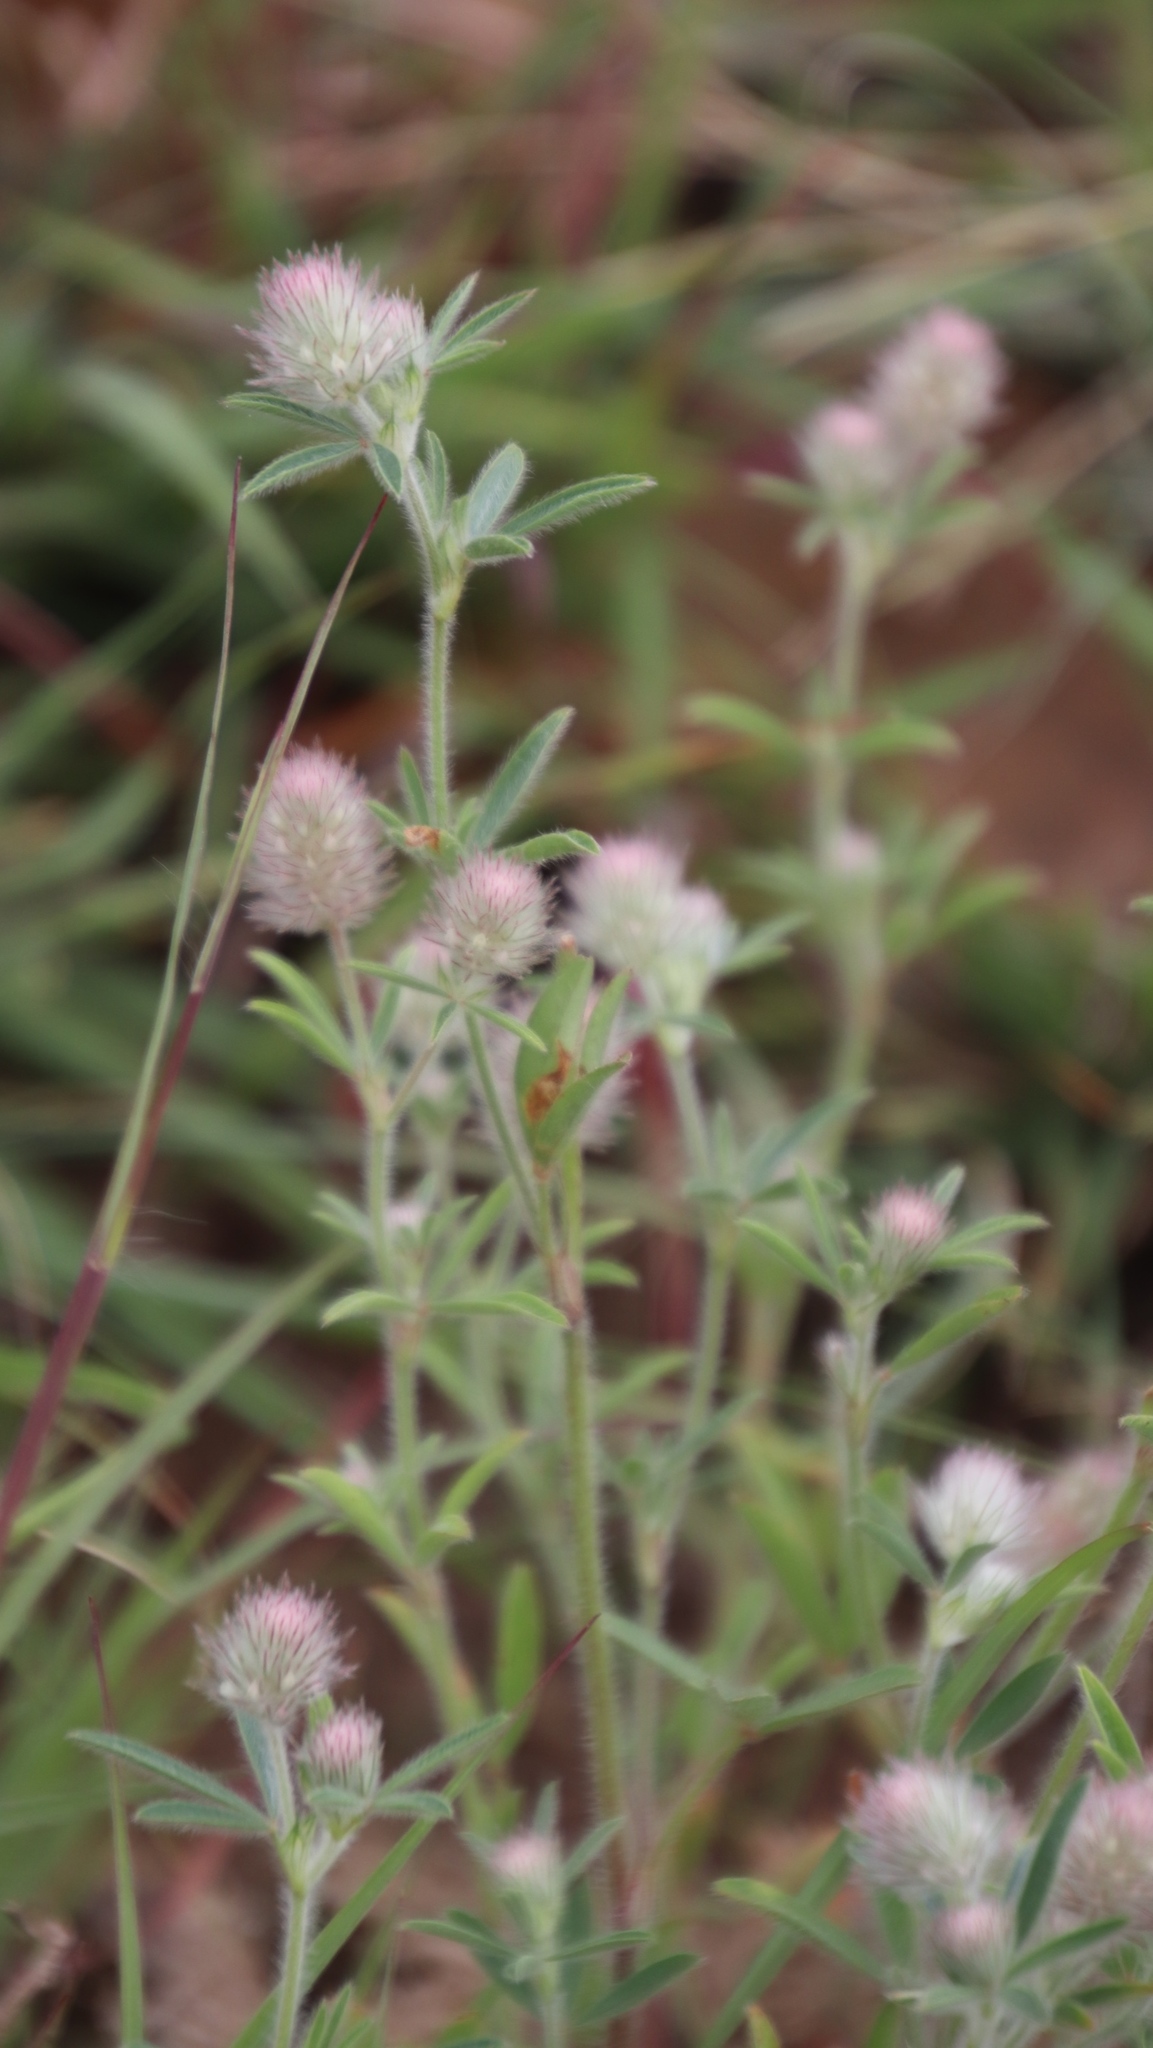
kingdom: Plantae
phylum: Tracheophyta
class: Magnoliopsida
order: Fabales
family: Fabaceae
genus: Trifolium
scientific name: Trifolium arvense
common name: Hare's-foot clover
